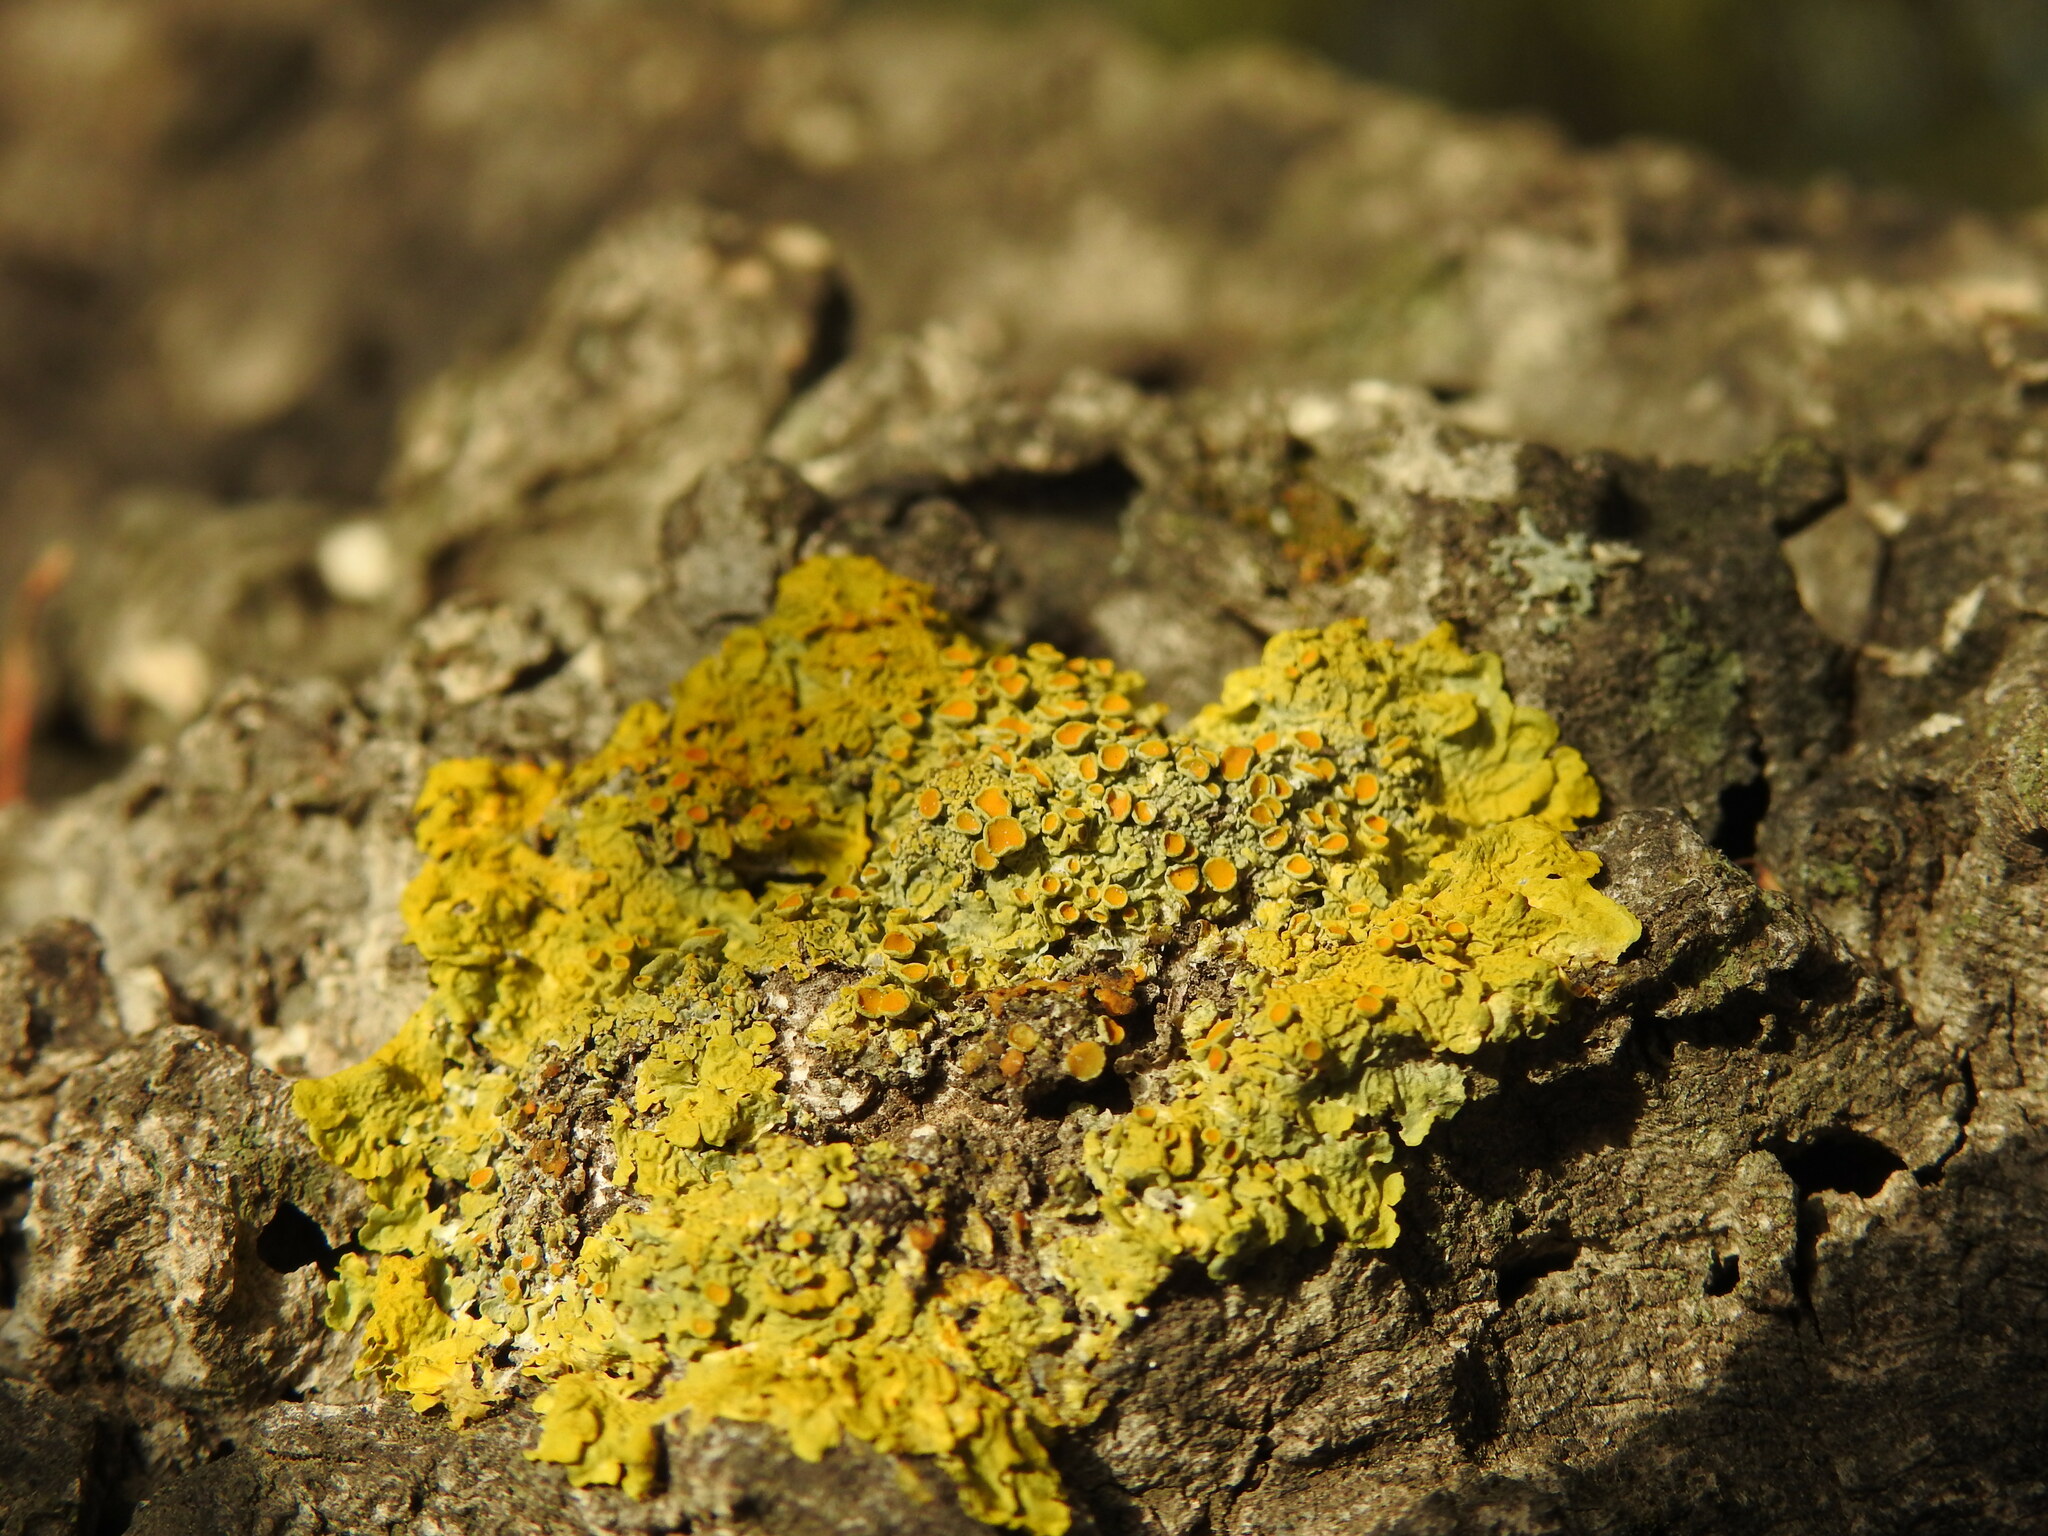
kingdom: Fungi
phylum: Ascomycota
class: Lecanoromycetes
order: Teloschistales
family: Teloschistaceae
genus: Xanthoria
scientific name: Xanthoria parietina
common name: Common orange lichen
